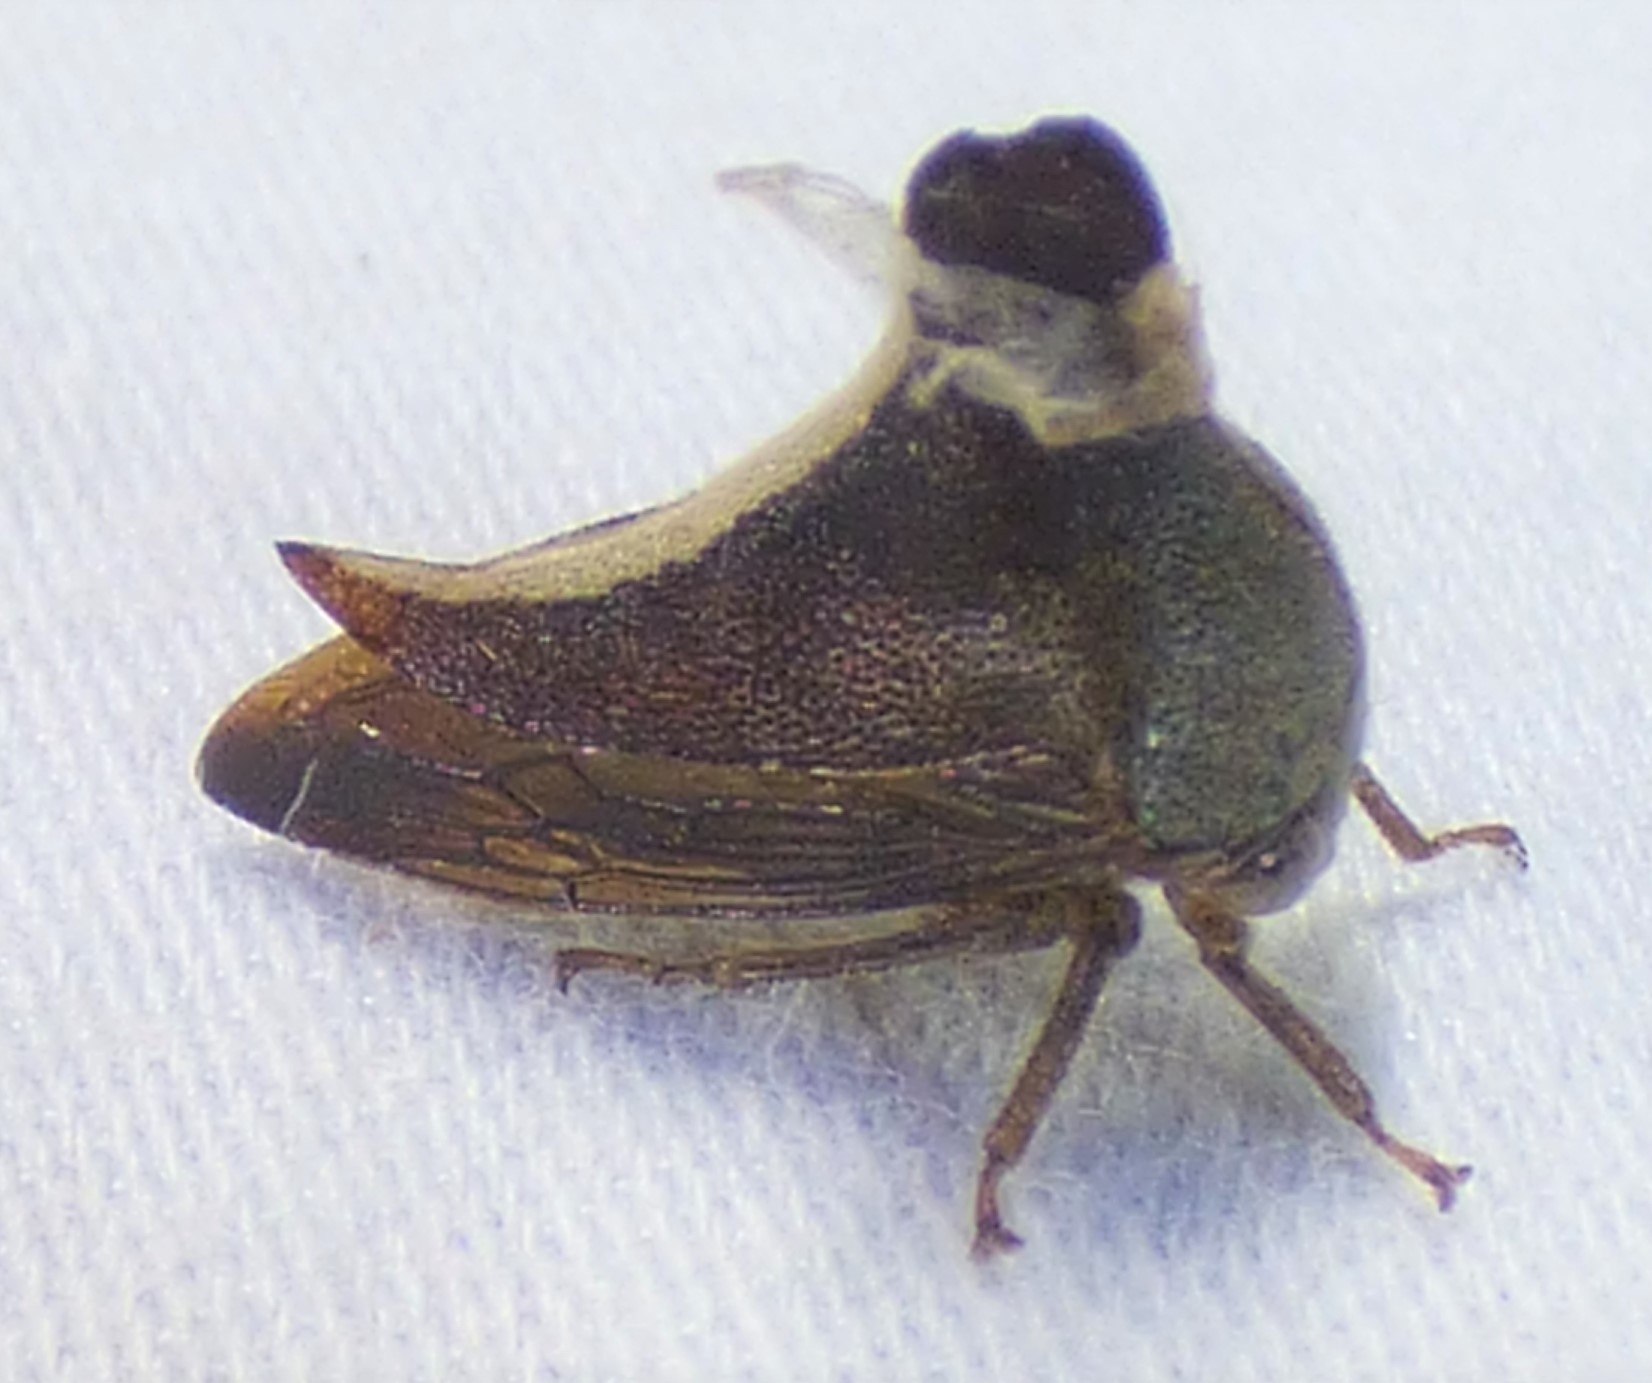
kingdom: Animalia
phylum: Arthropoda
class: Insecta
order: Hemiptera
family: Membracidae
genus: Glossonotus
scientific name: Glossonotus univittatus
